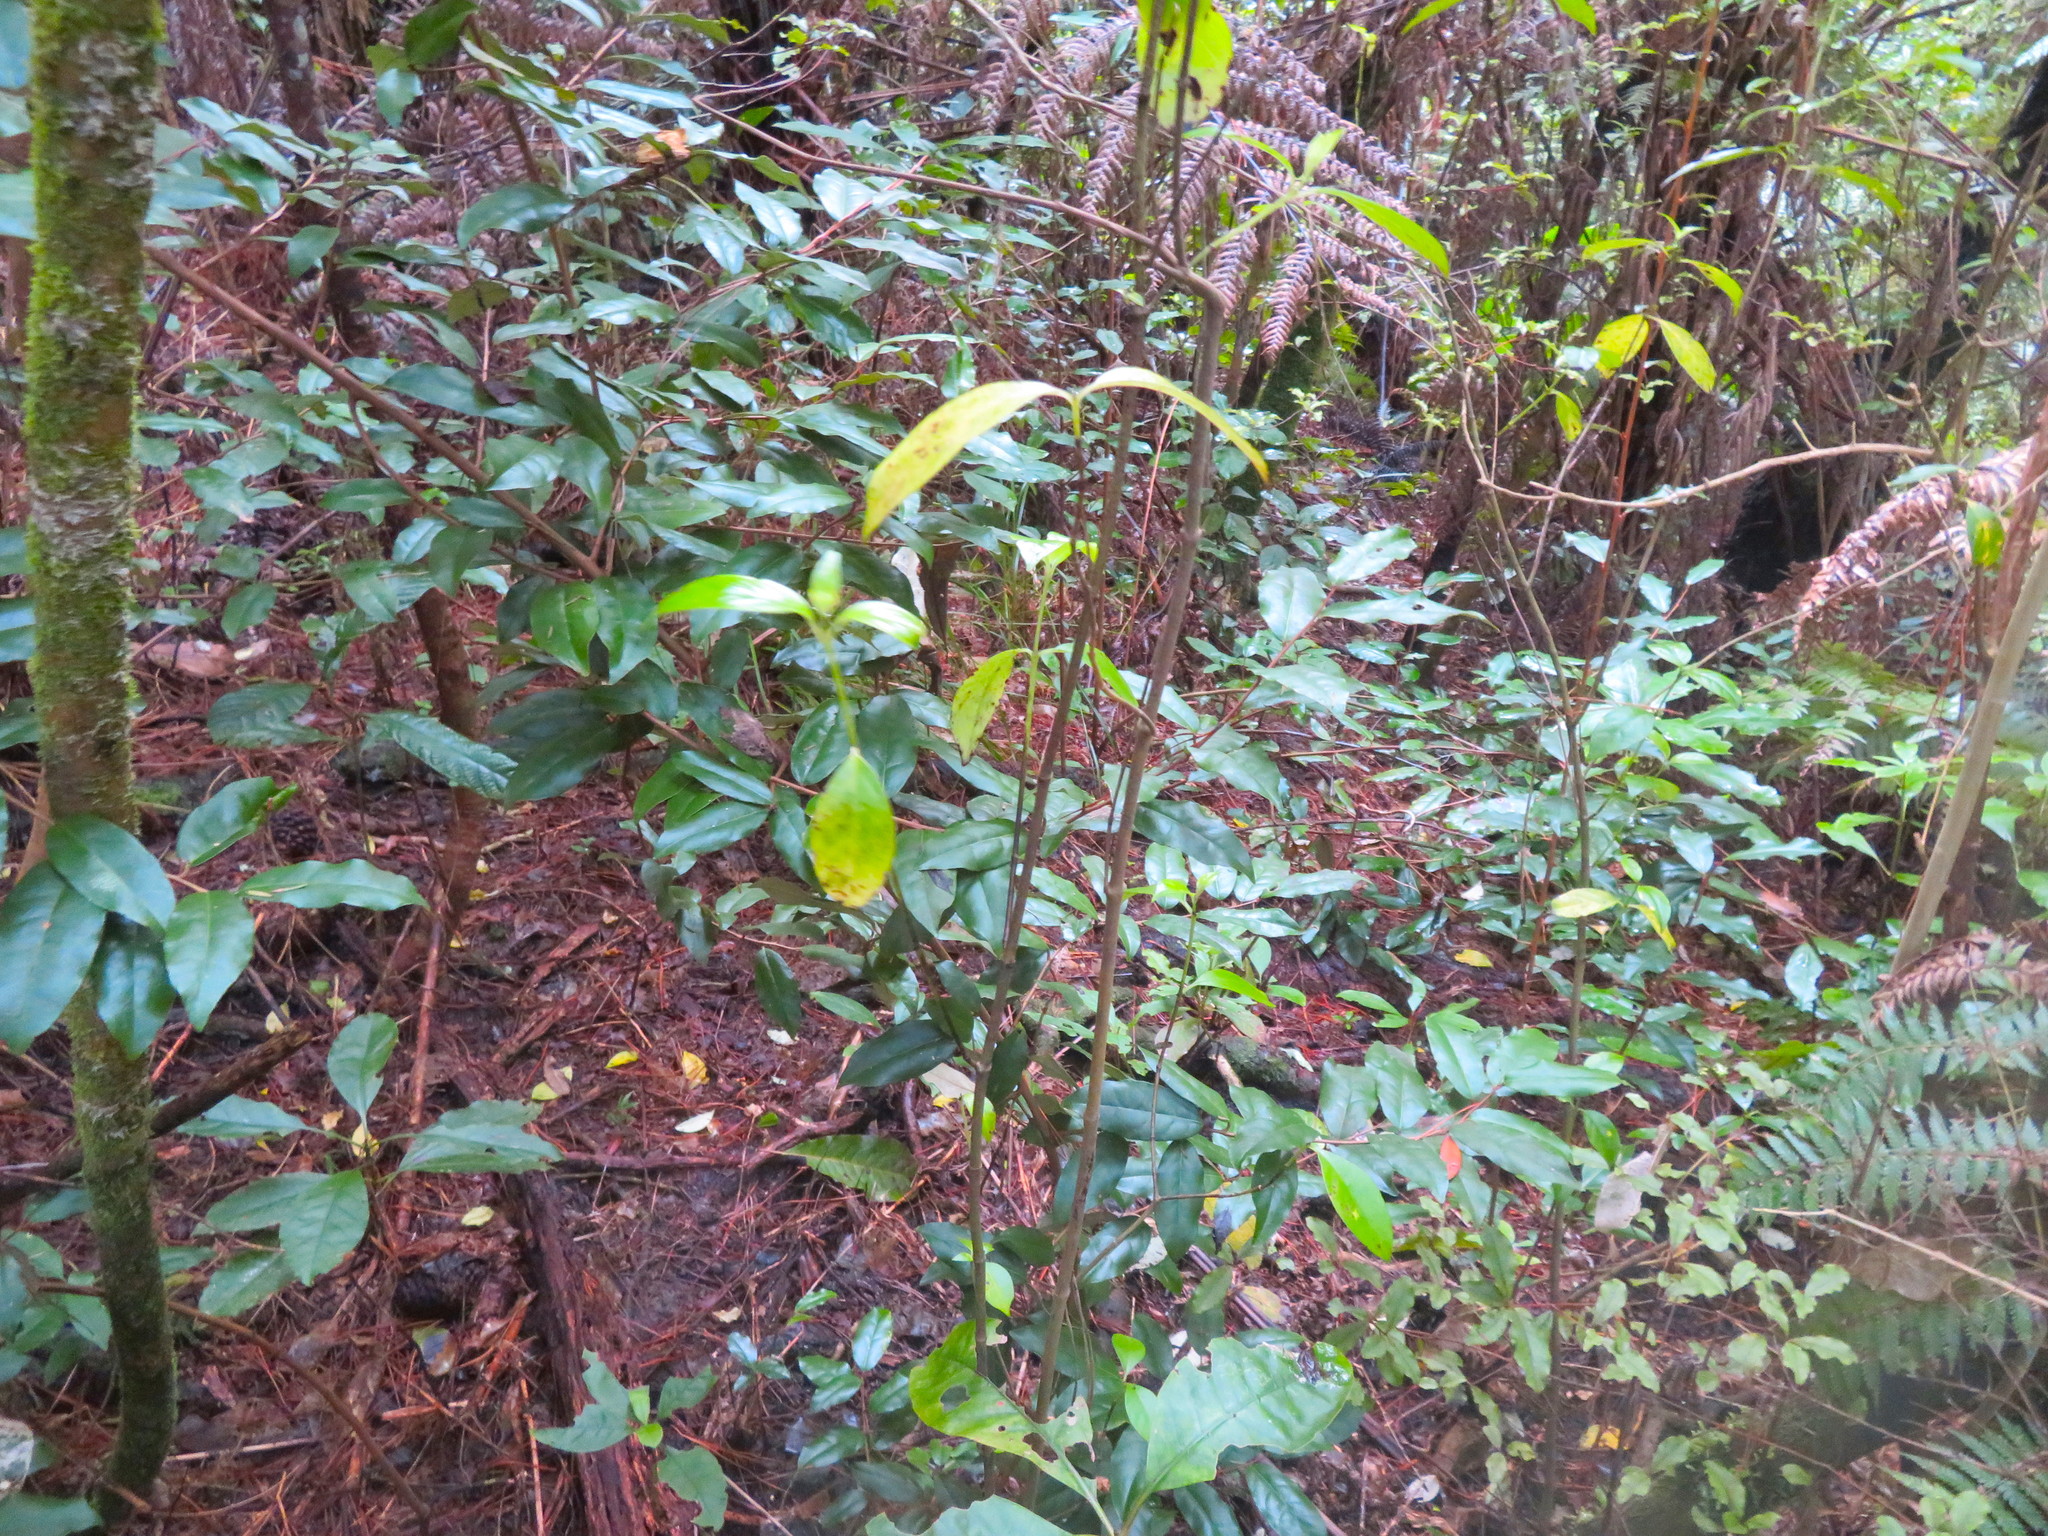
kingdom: Plantae
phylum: Tracheophyta
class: Magnoliopsida
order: Rosales
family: Elaeagnaceae
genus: Elaeagnus
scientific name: Elaeagnus reflexa
